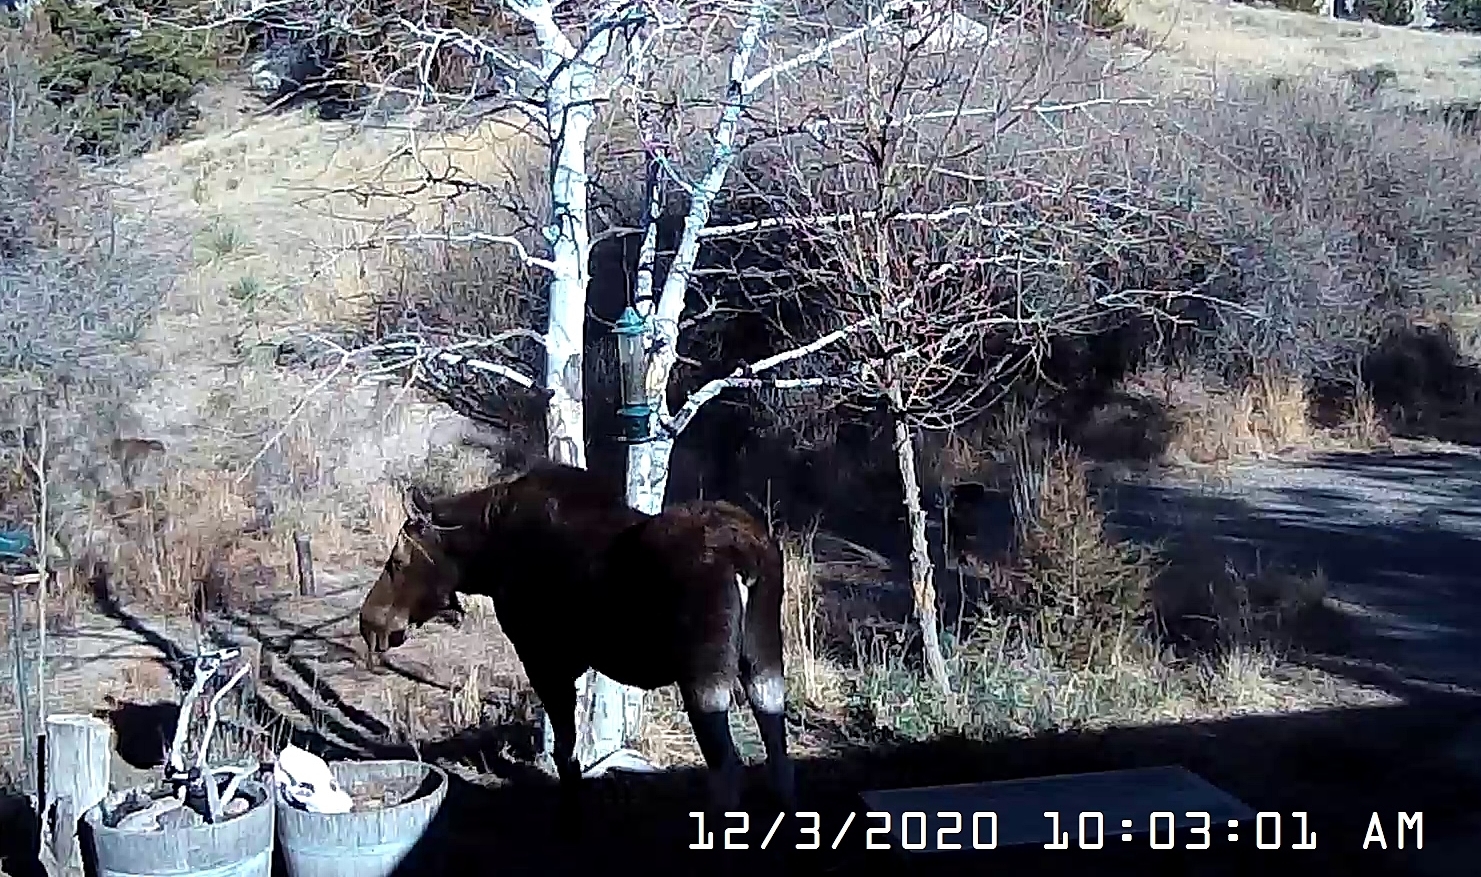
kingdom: Animalia
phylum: Chordata
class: Mammalia
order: Artiodactyla
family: Cervidae
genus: Alces
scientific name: Alces alces
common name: Moose
